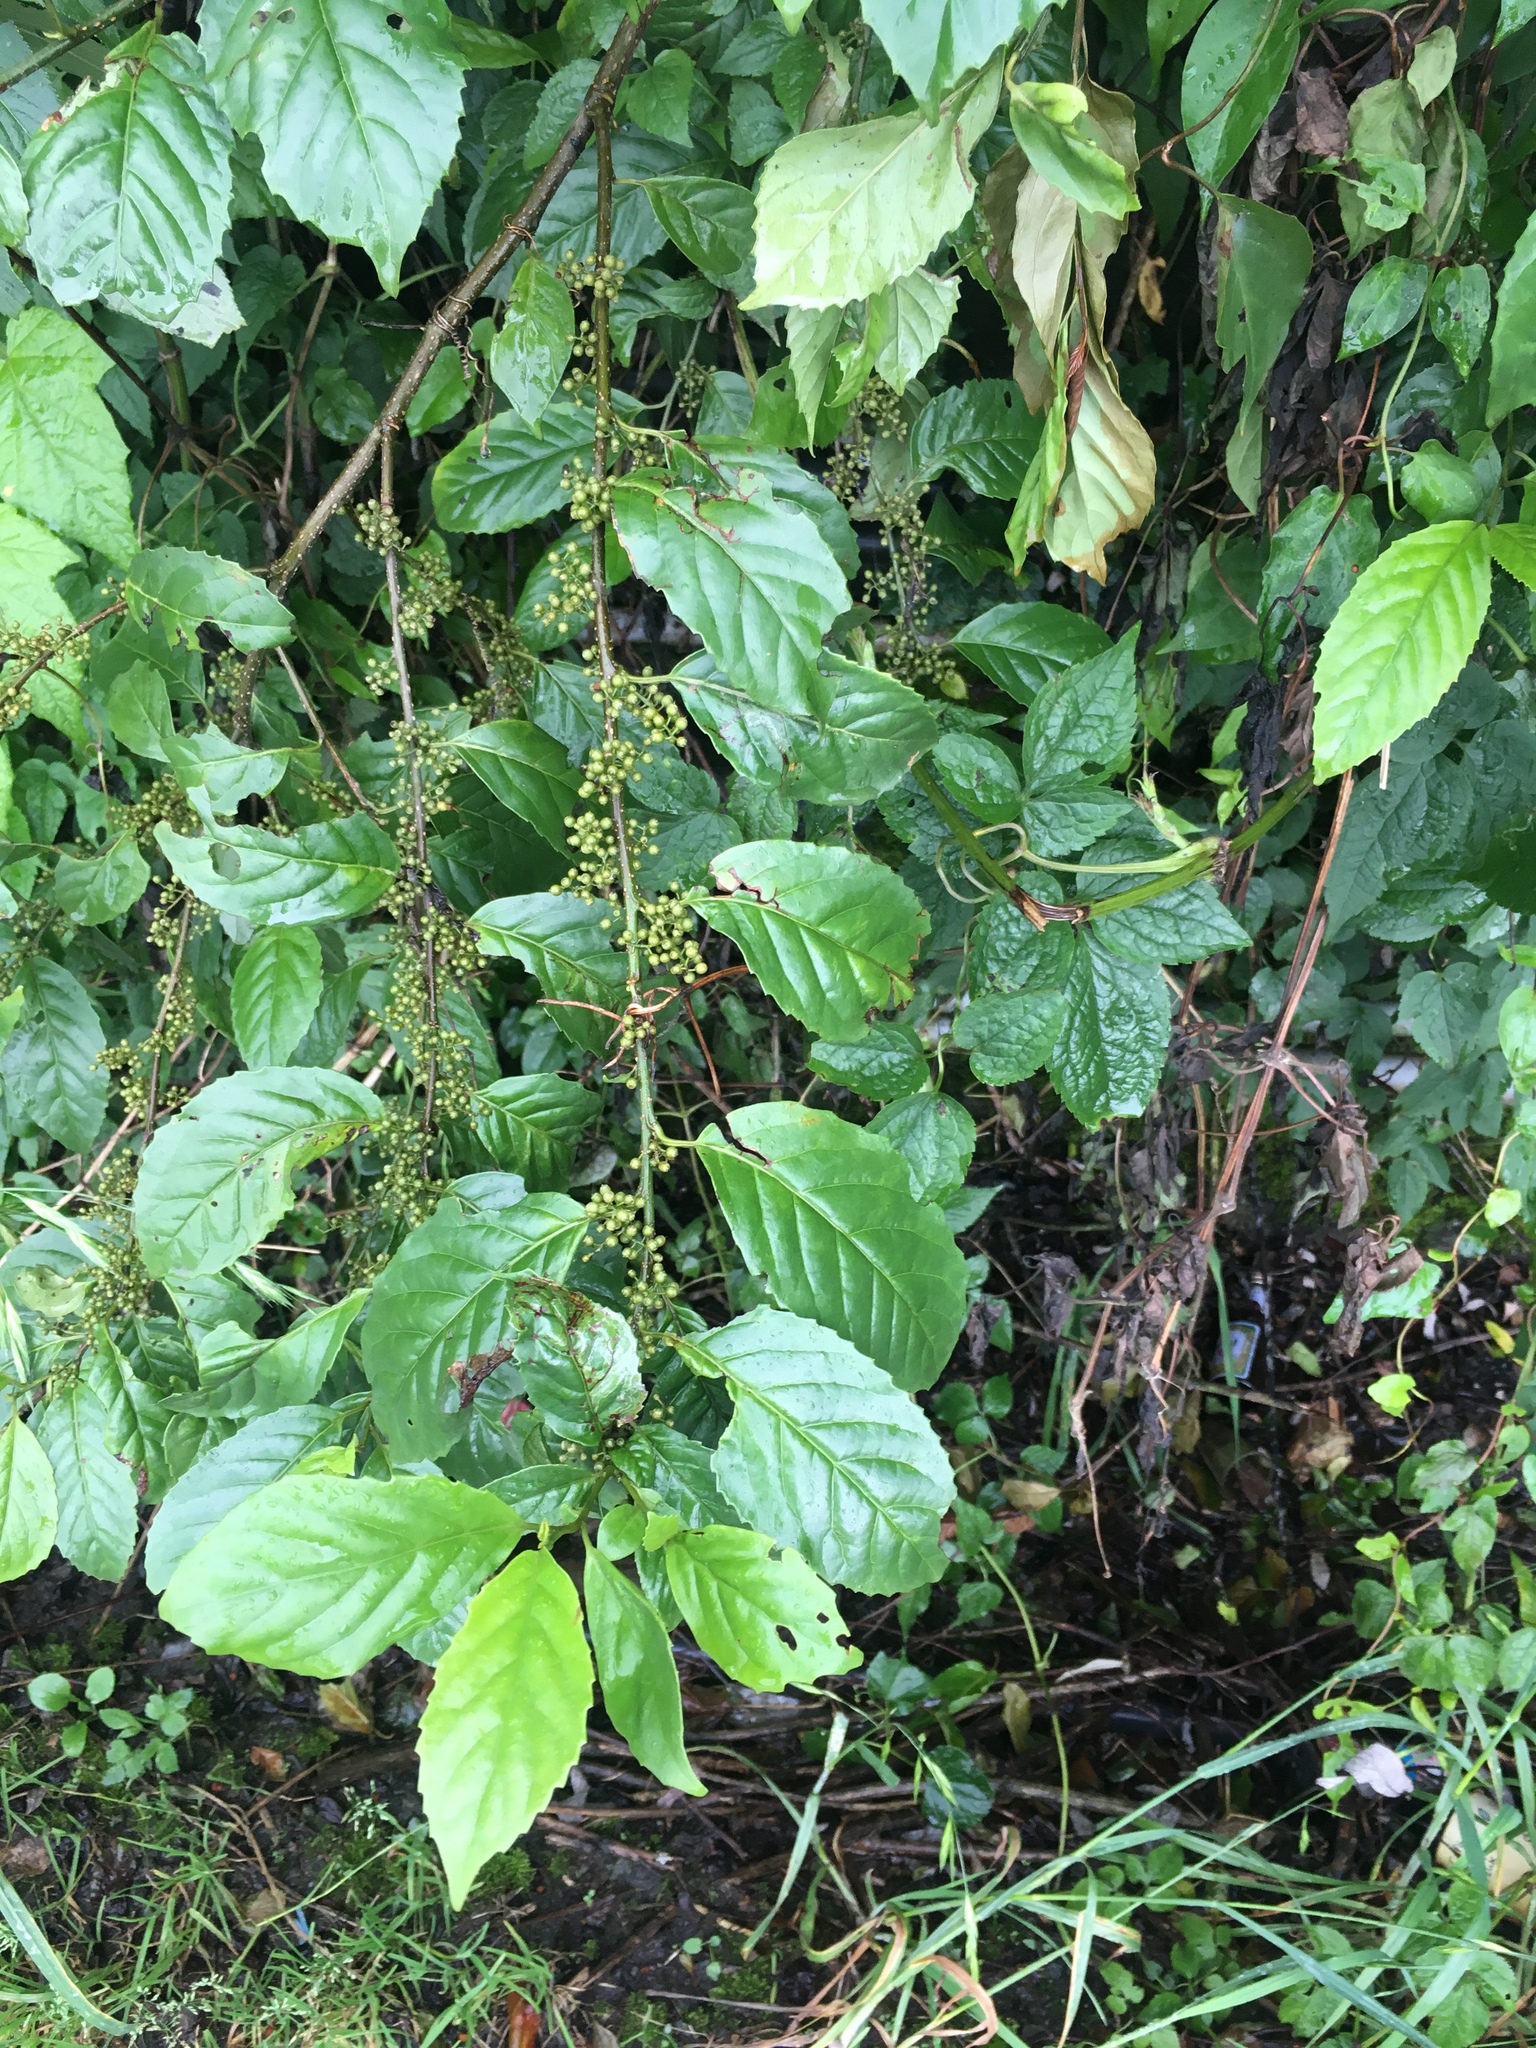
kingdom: Plantae
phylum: Tracheophyta
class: Magnoliopsida
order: Ericales
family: Primulaceae
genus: Maesa
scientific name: Maesa perlaria
